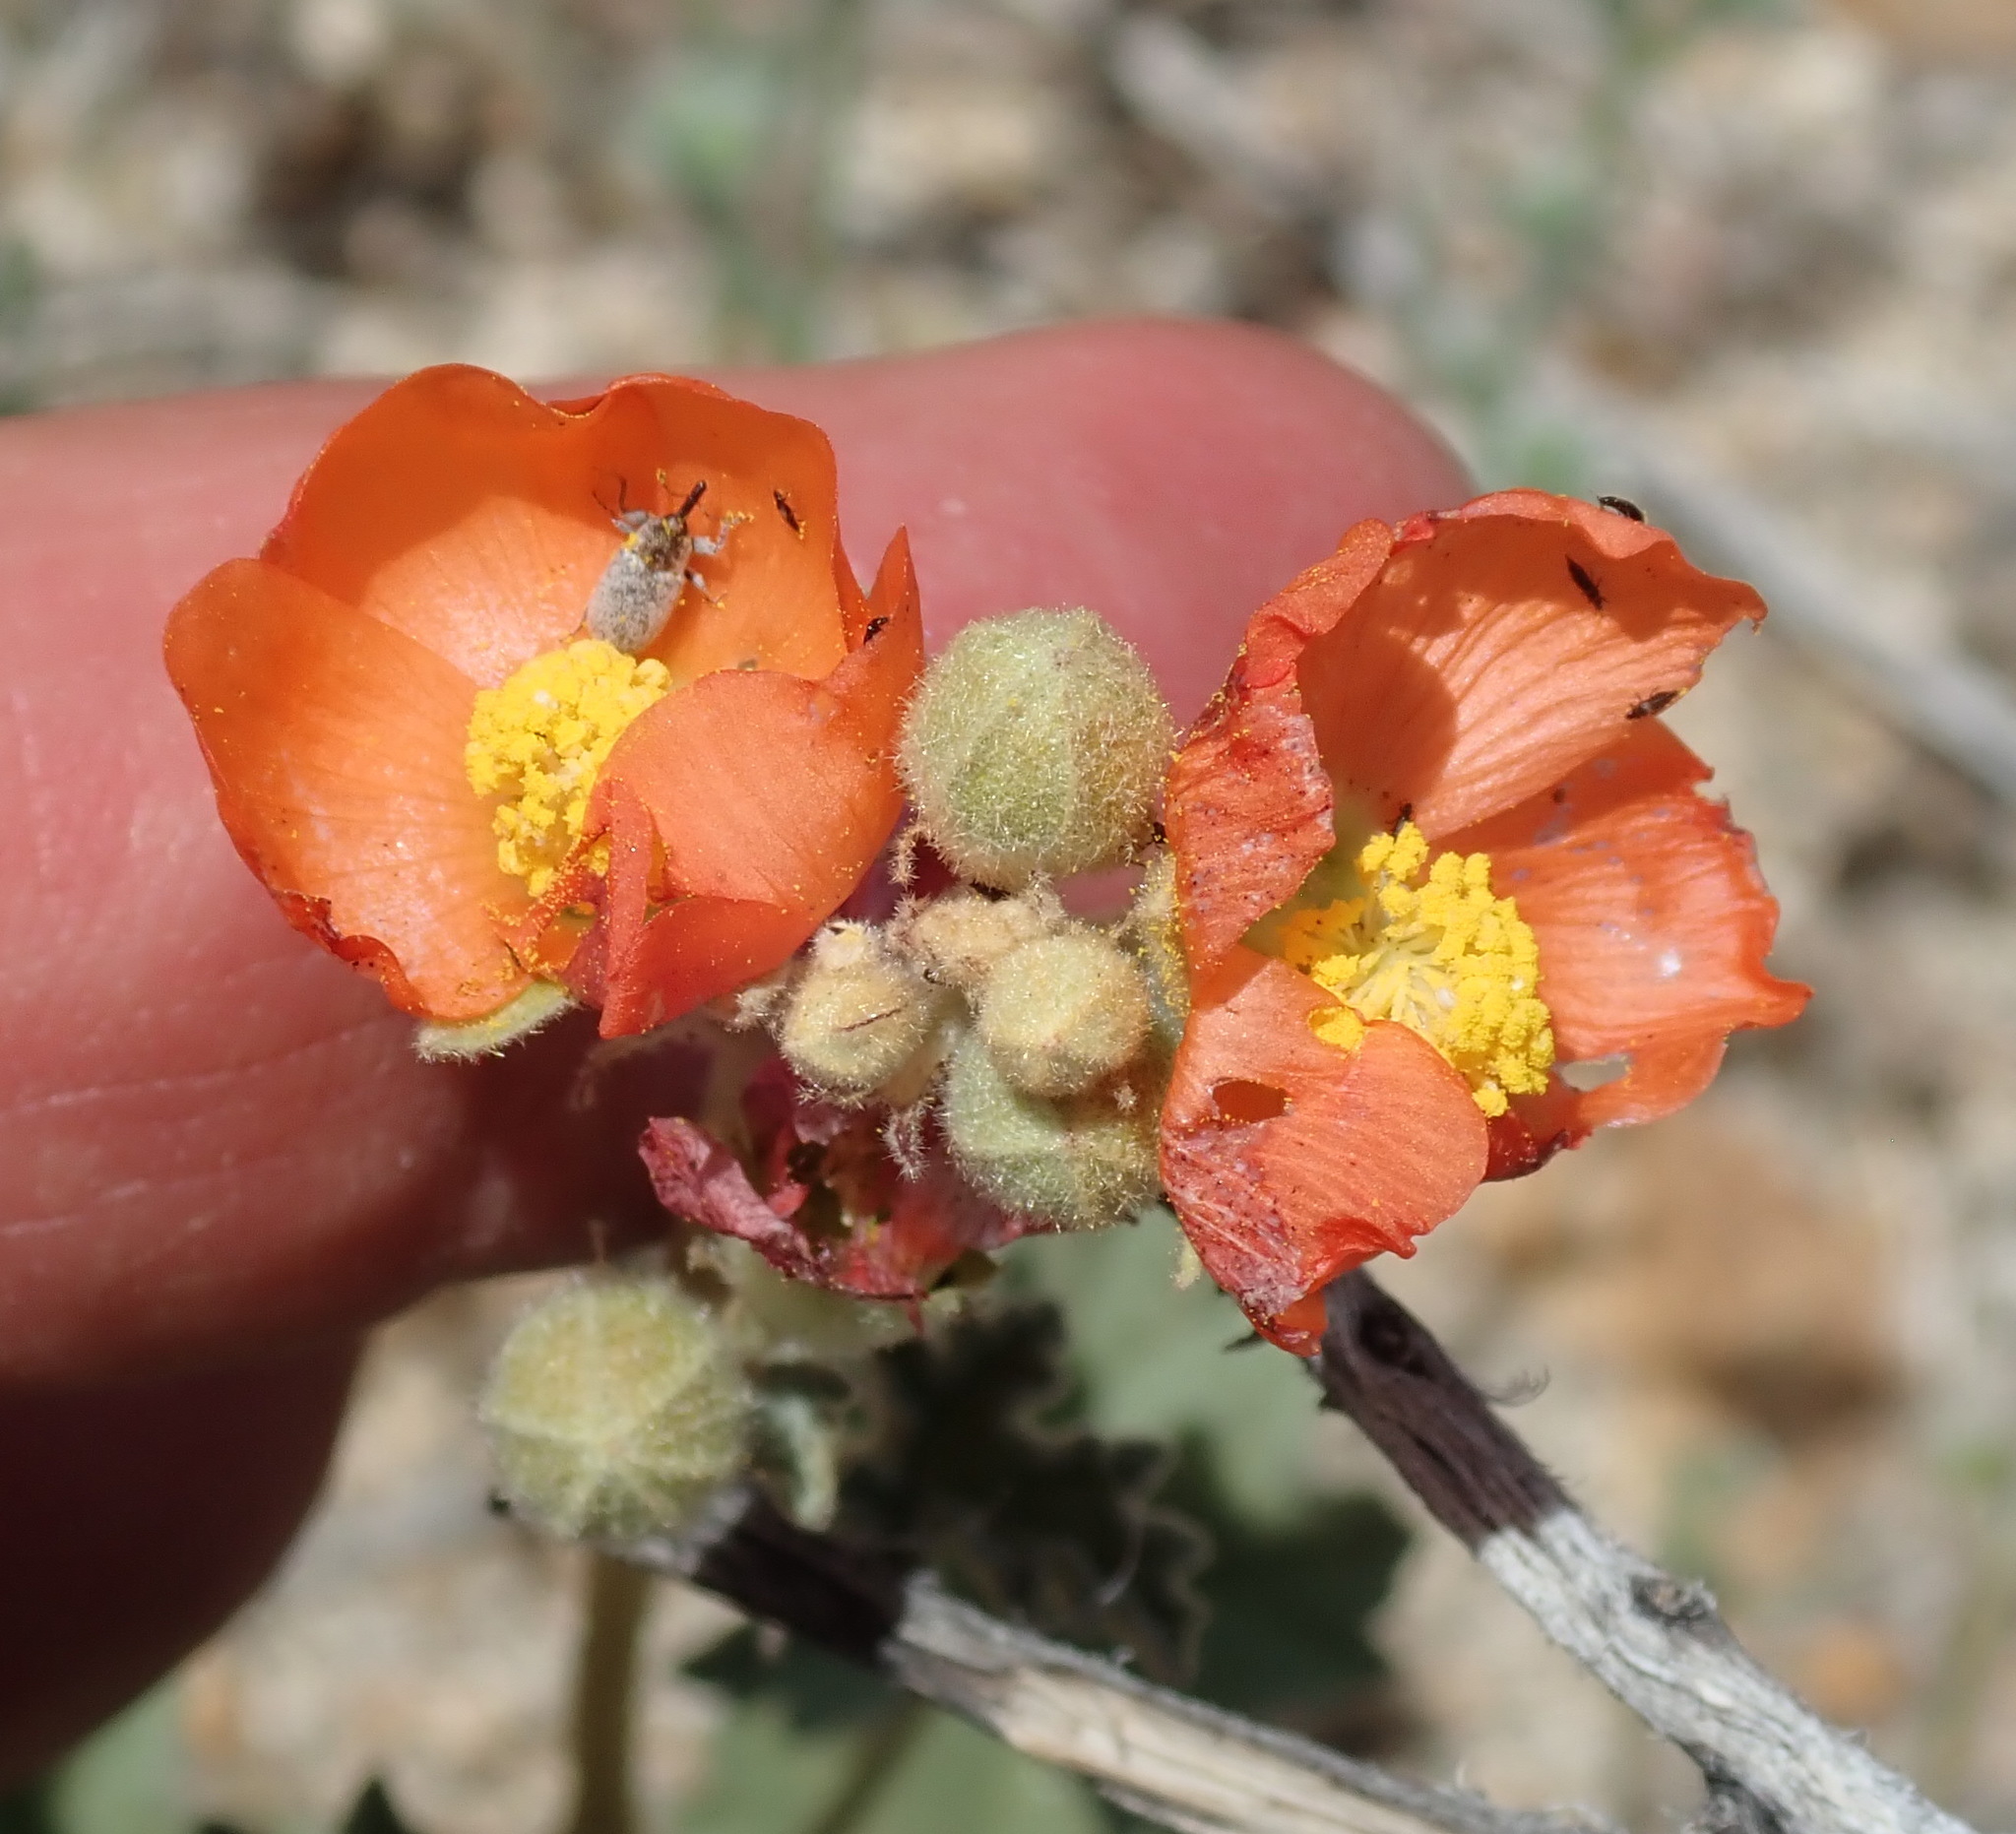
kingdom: Plantae
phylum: Tracheophyta
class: Magnoliopsida
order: Malvales
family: Malvaceae
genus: Sphaeralcea
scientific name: Sphaeralcea ambigua
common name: Apricot globe-mallow
